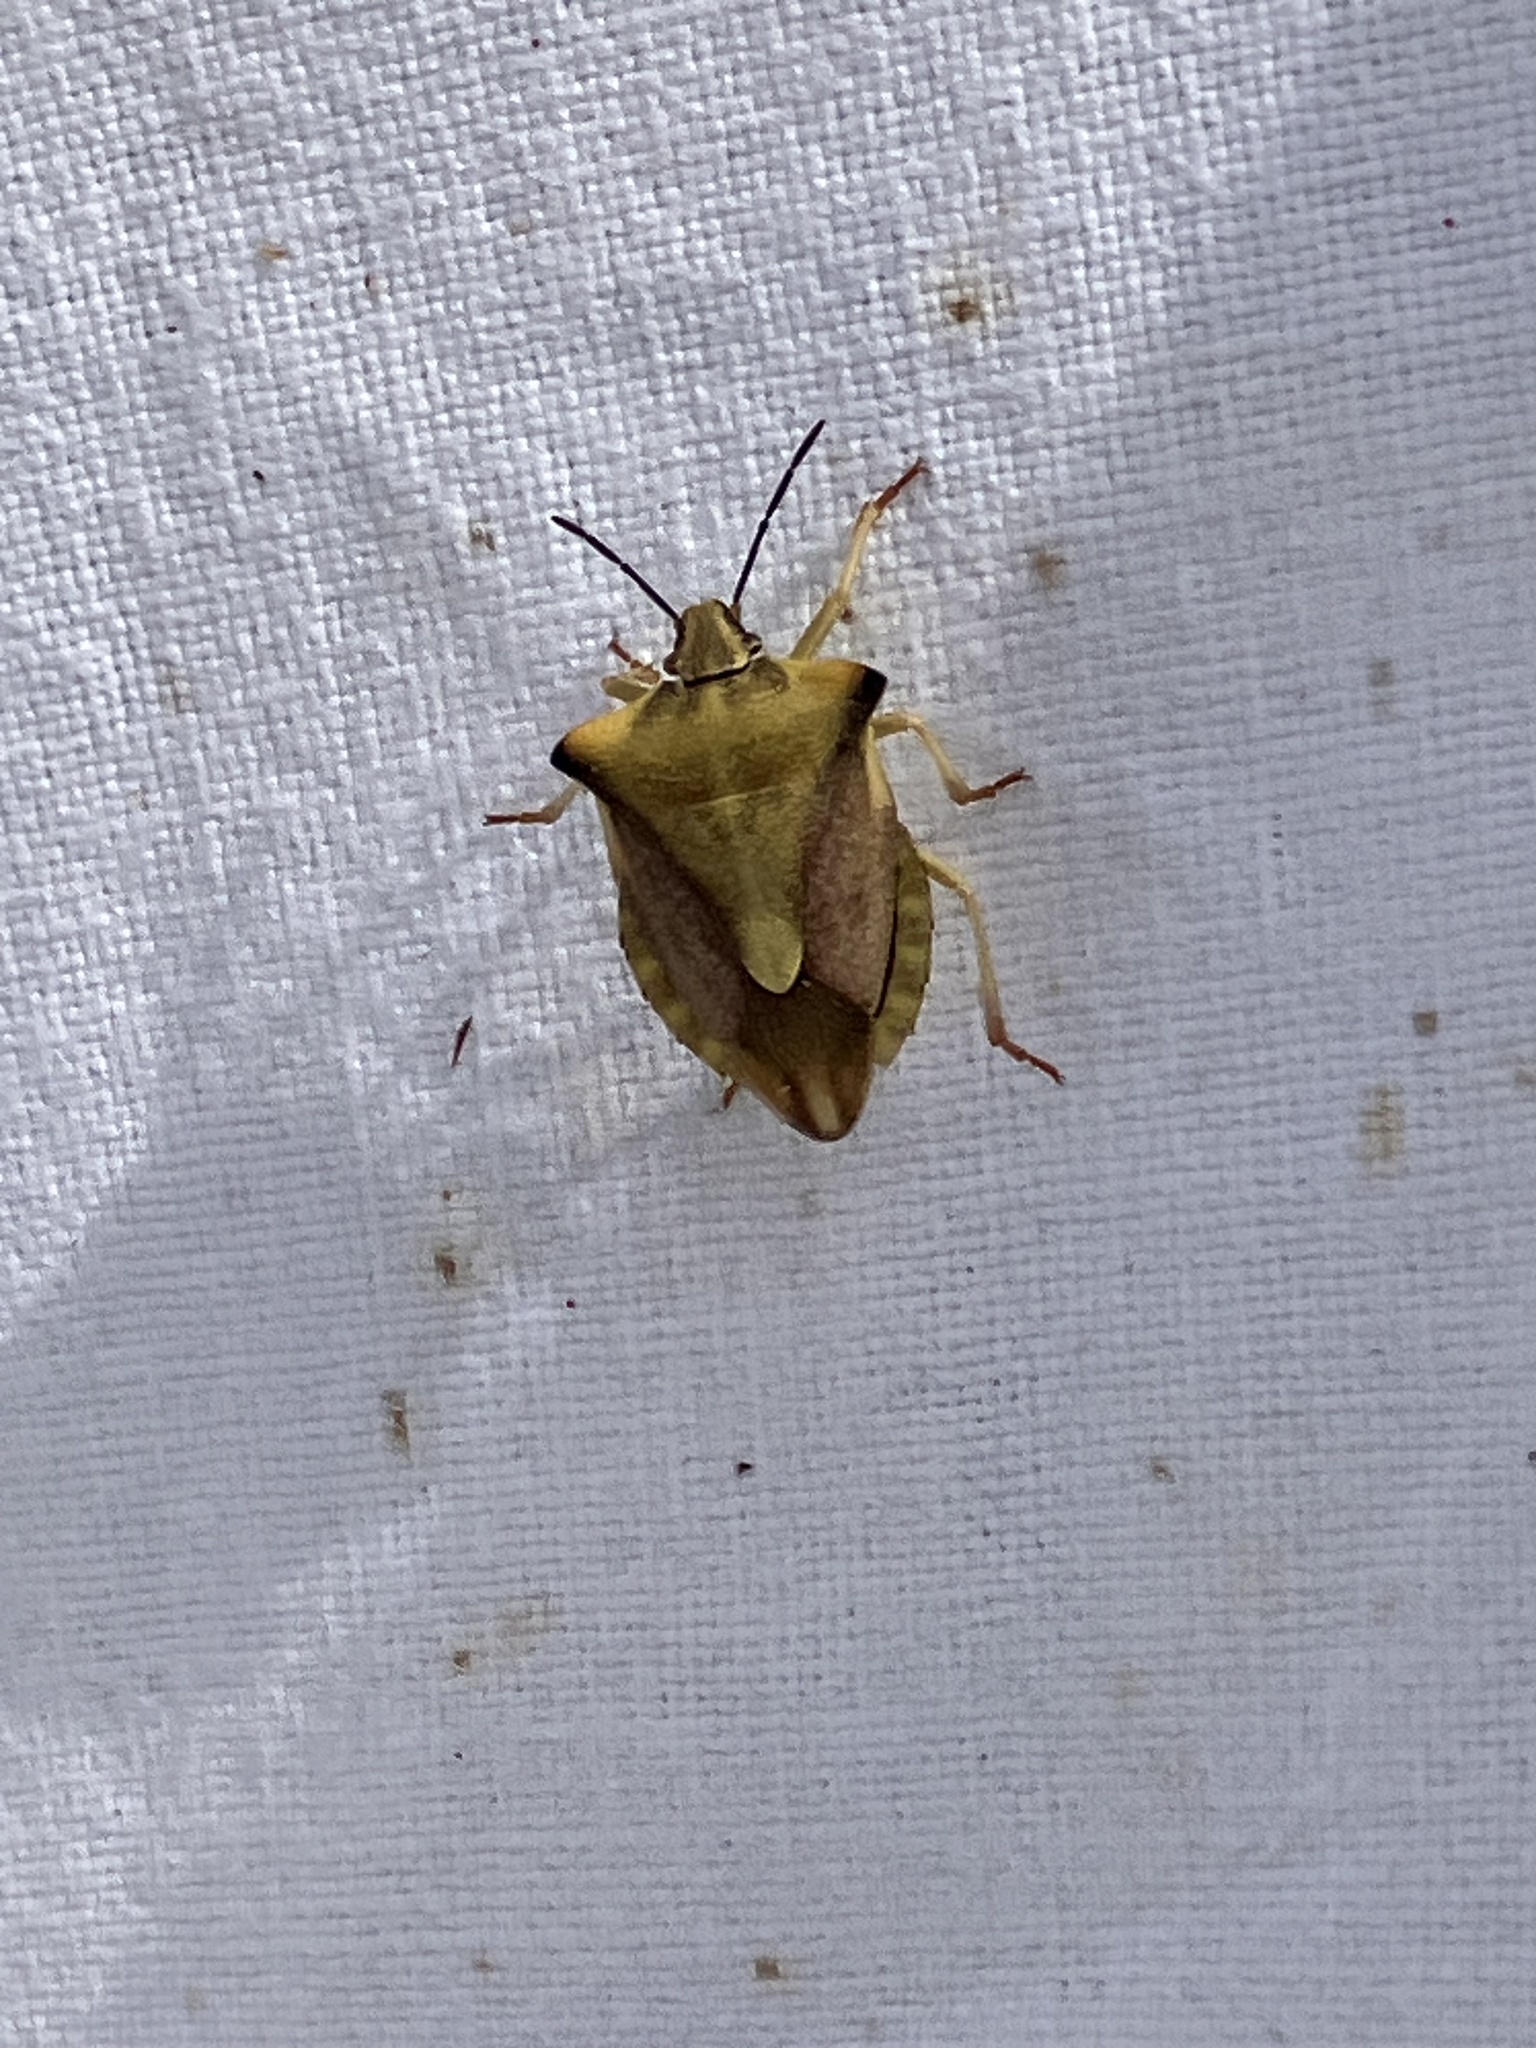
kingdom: Animalia
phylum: Arthropoda
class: Insecta
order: Hemiptera
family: Pentatomidae
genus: Carpocoris
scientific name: Carpocoris fuscispinus
